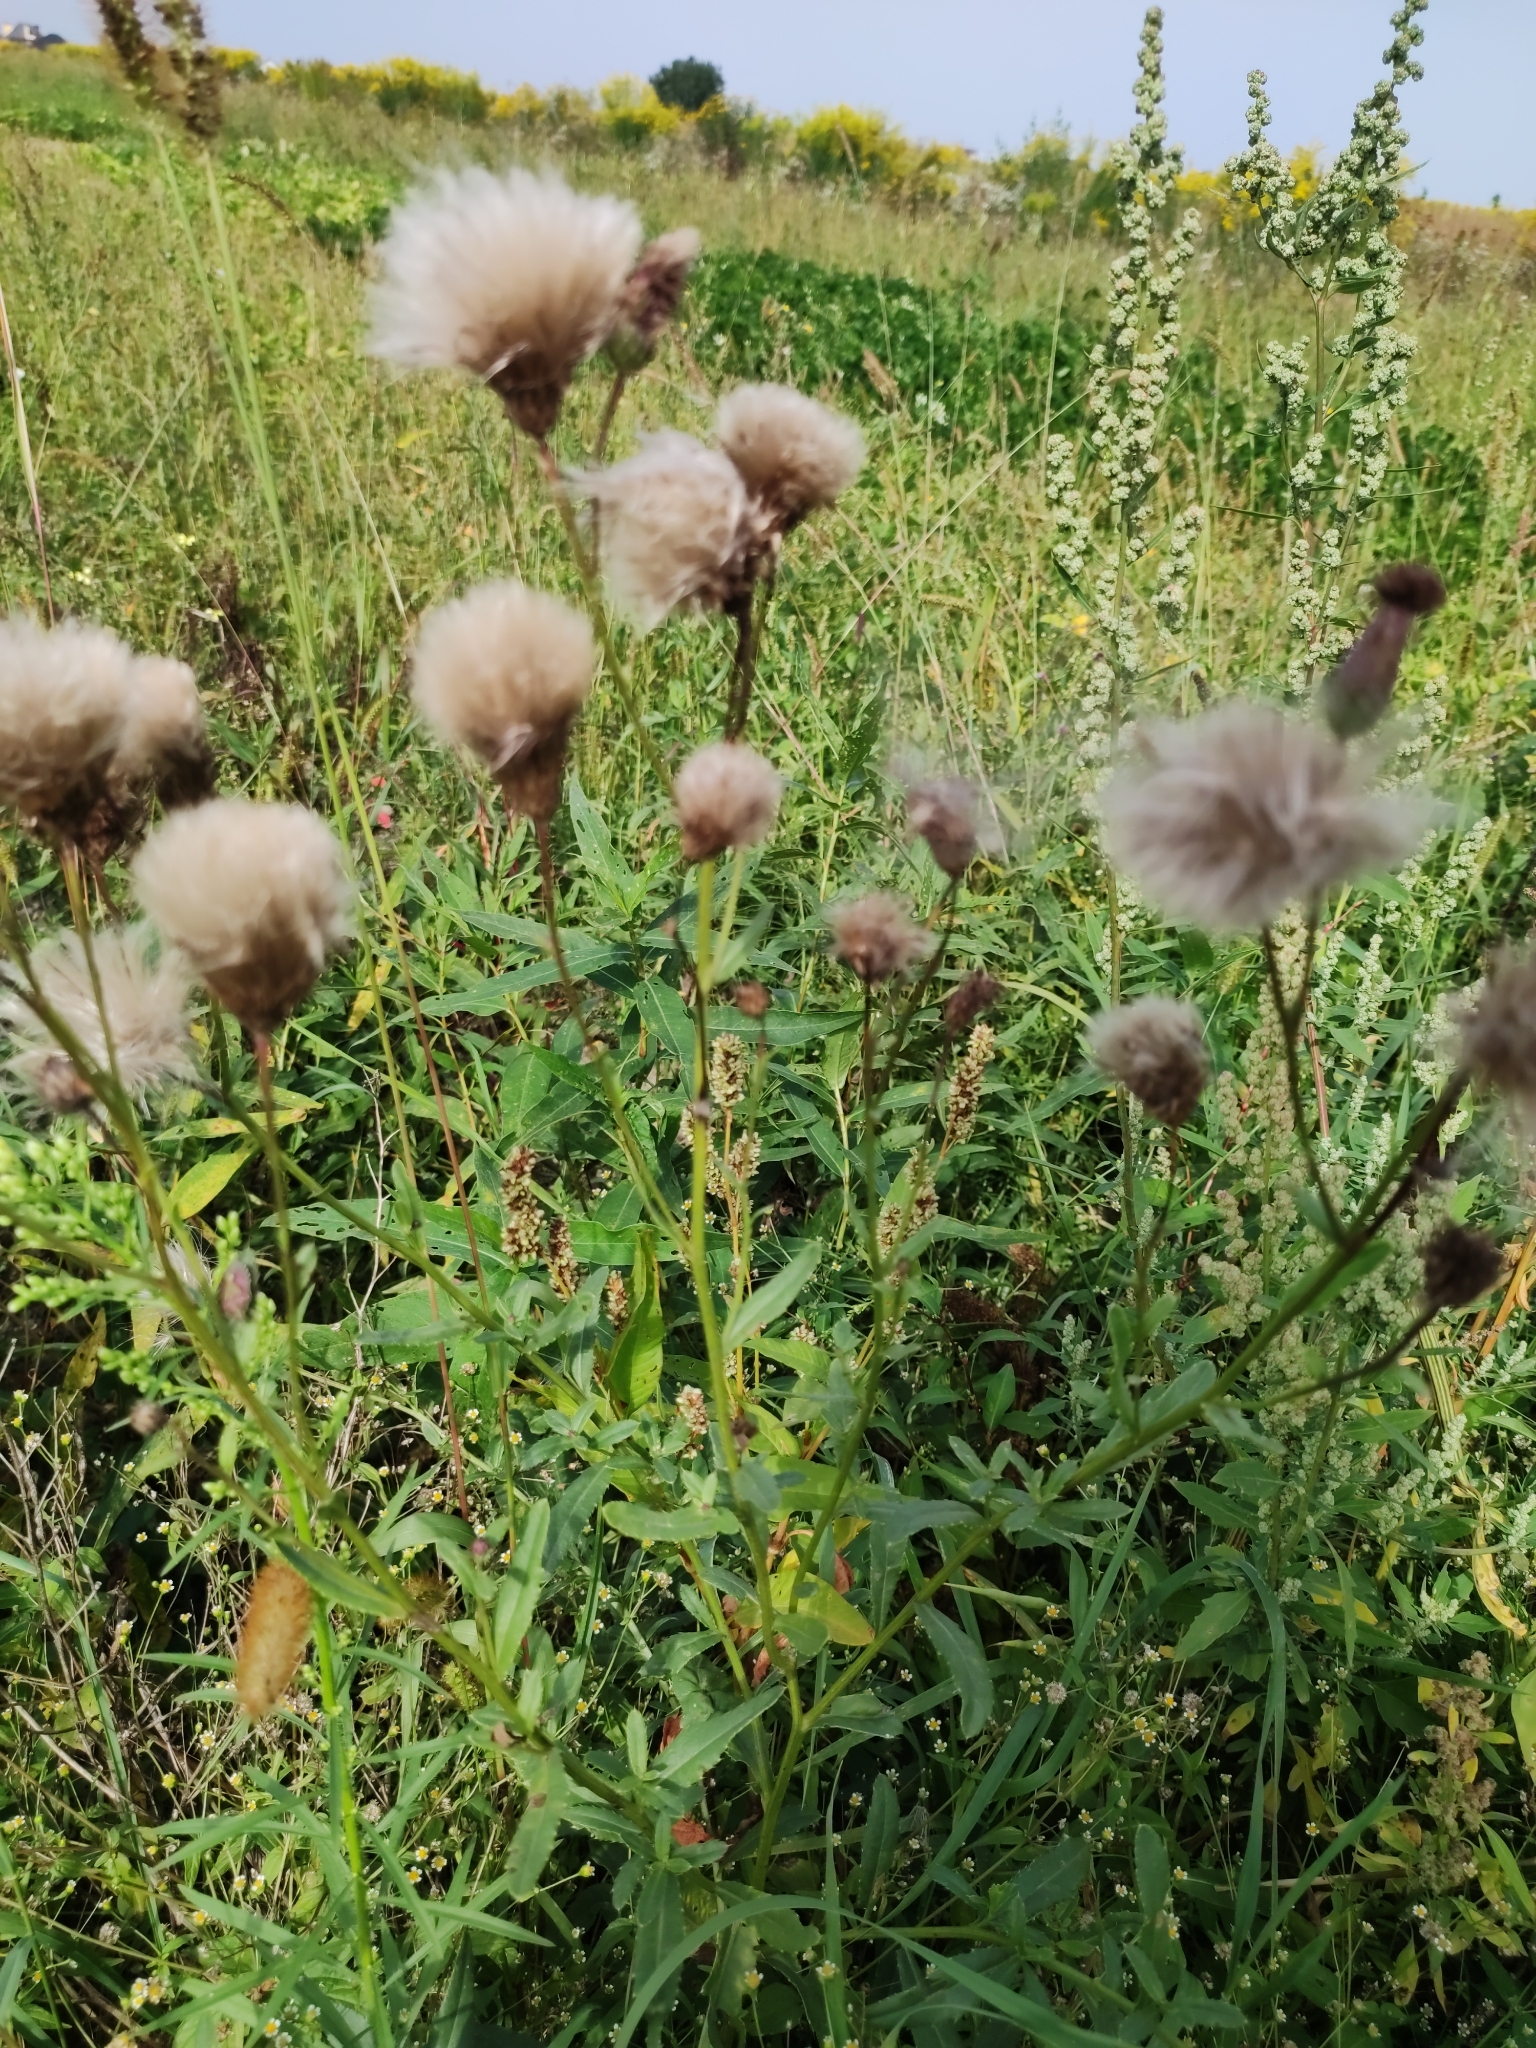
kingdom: Plantae
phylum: Tracheophyta
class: Magnoliopsida
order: Asterales
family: Asteraceae
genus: Cirsium
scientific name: Cirsium arvense
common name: Creeping thistle
